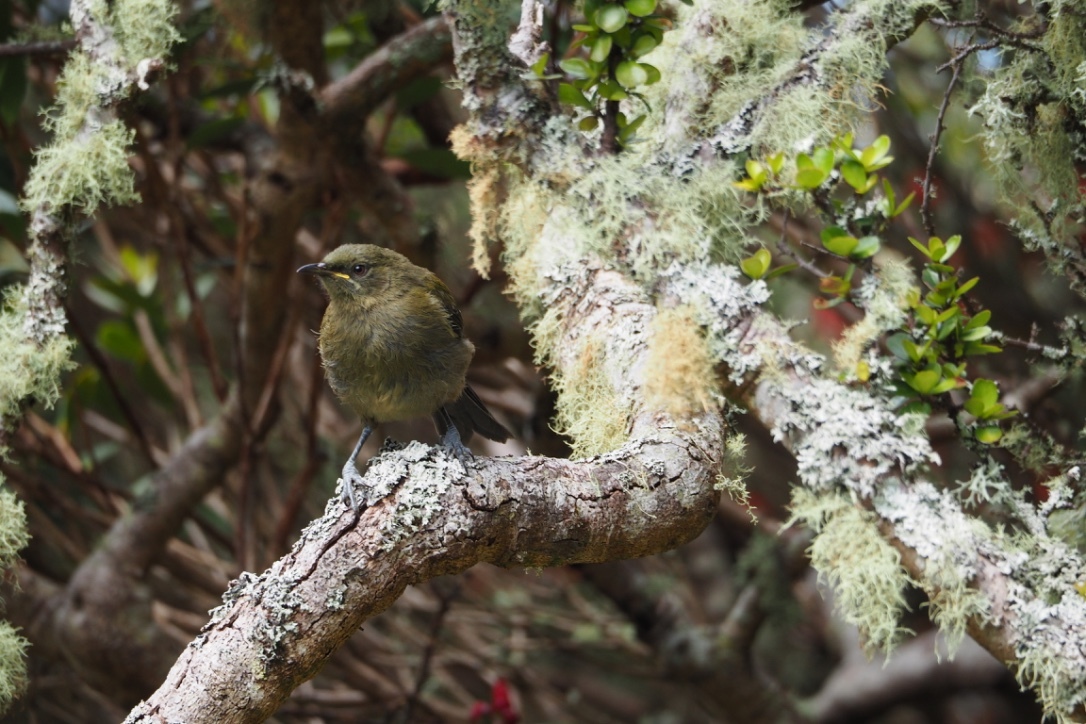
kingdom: Animalia
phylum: Chordata
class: Aves
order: Passeriformes
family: Meliphagidae
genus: Anthornis
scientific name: Anthornis melanura
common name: New zealand bellbird
